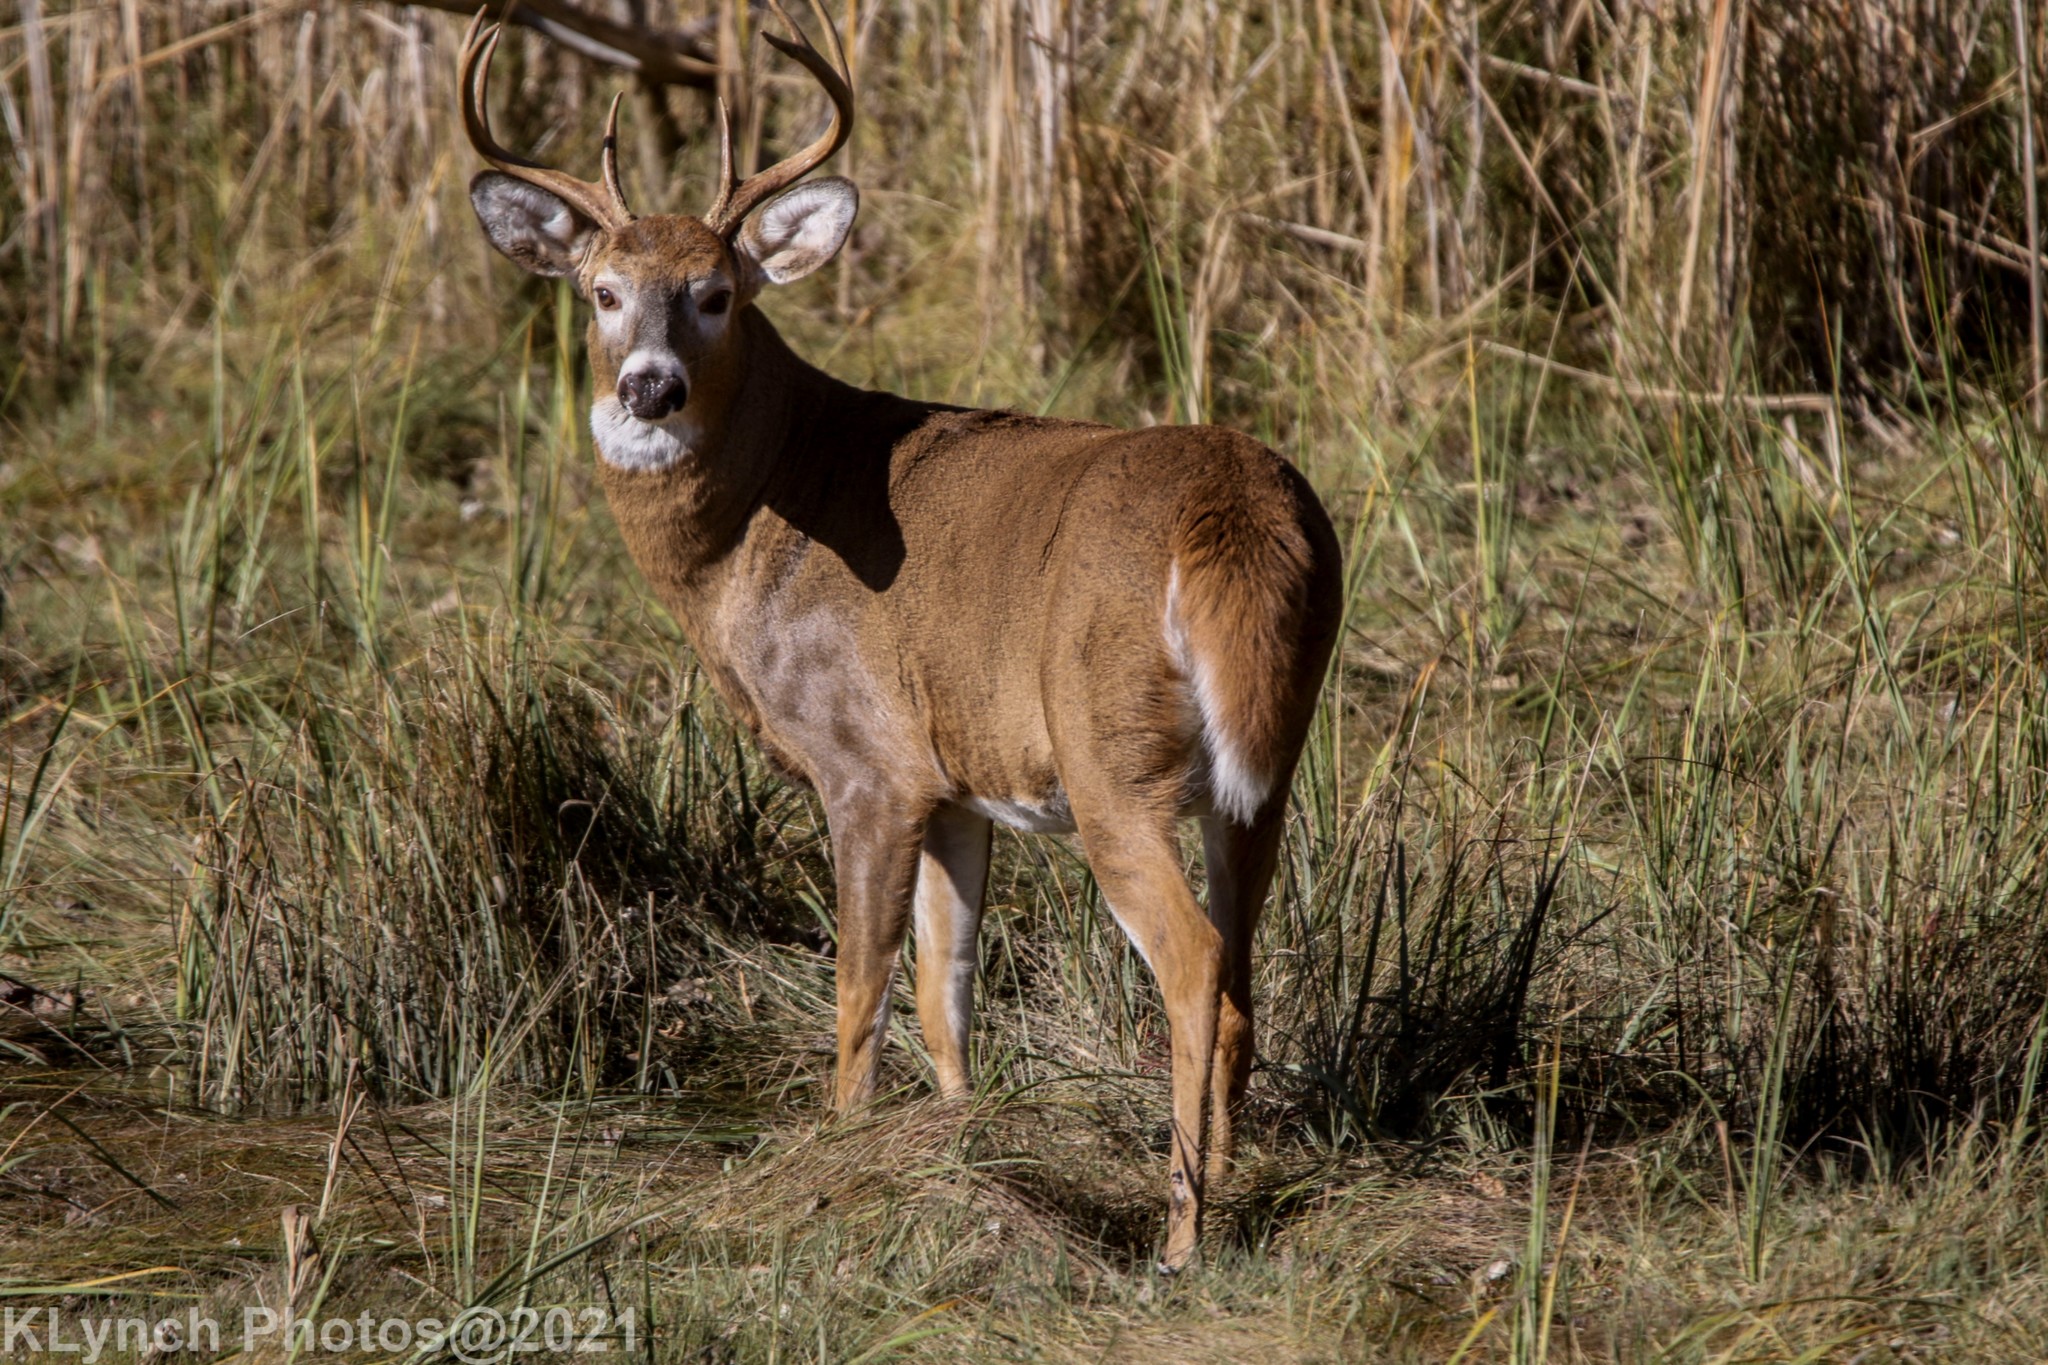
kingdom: Animalia
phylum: Chordata
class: Mammalia
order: Artiodactyla
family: Cervidae
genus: Odocoileus
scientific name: Odocoileus virginianus
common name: White-tailed deer
